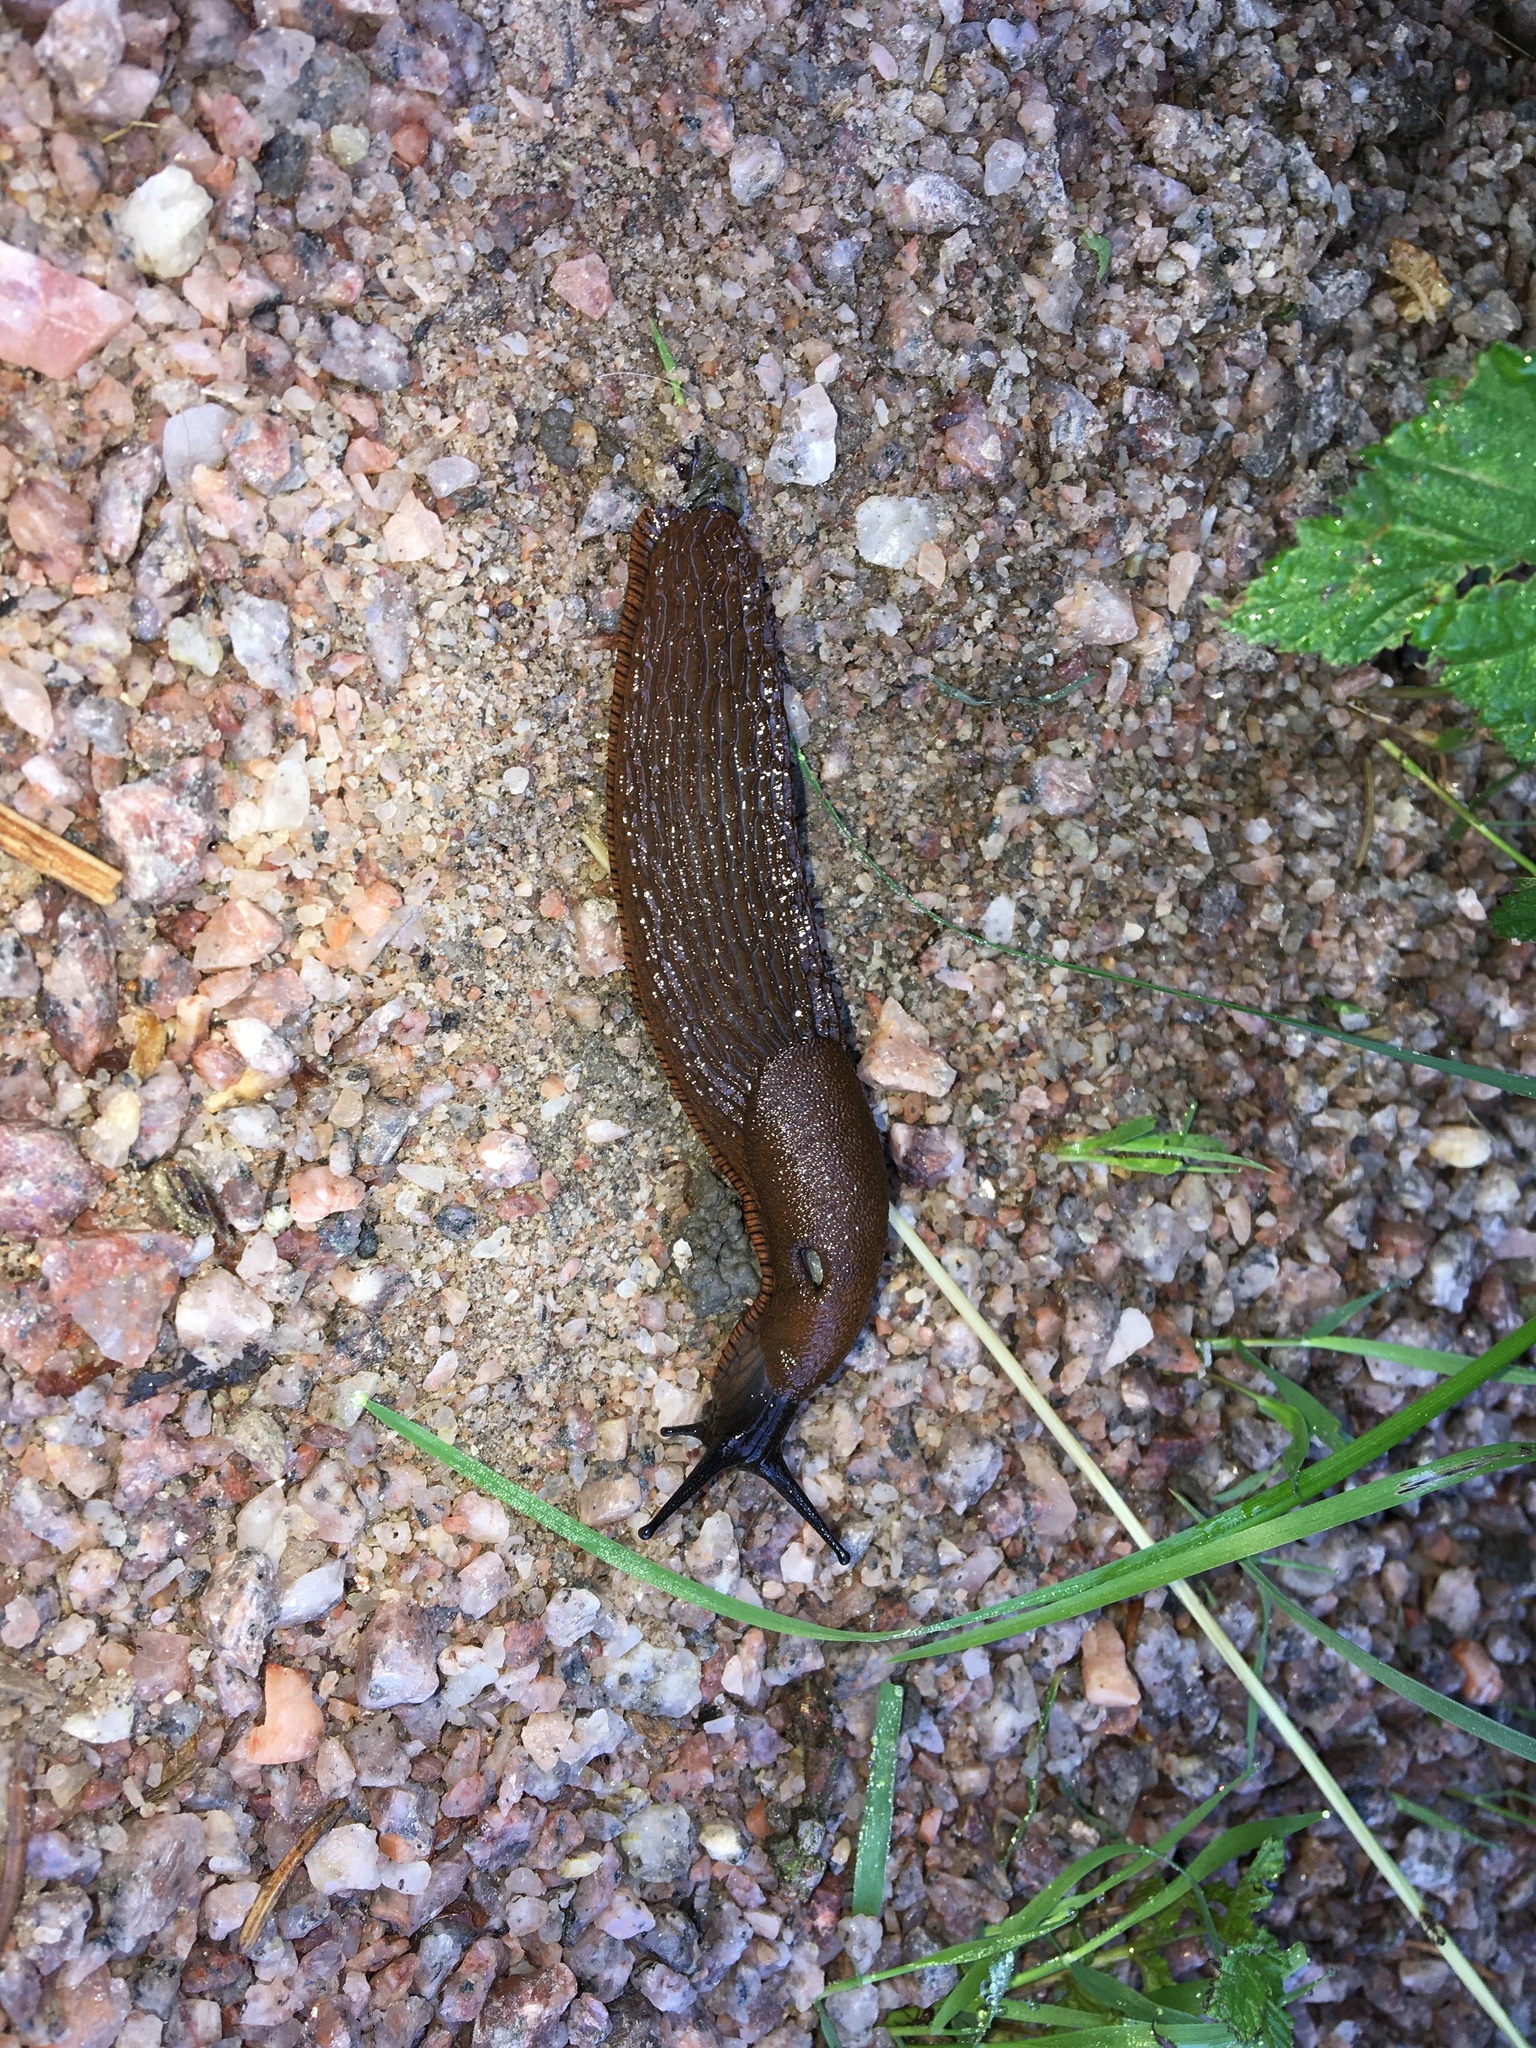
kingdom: Animalia
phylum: Mollusca
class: Gastropoda
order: Stylommatophora
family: Arionidae
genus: Arion
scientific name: Arion vulgaris
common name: Lusitanian slug
